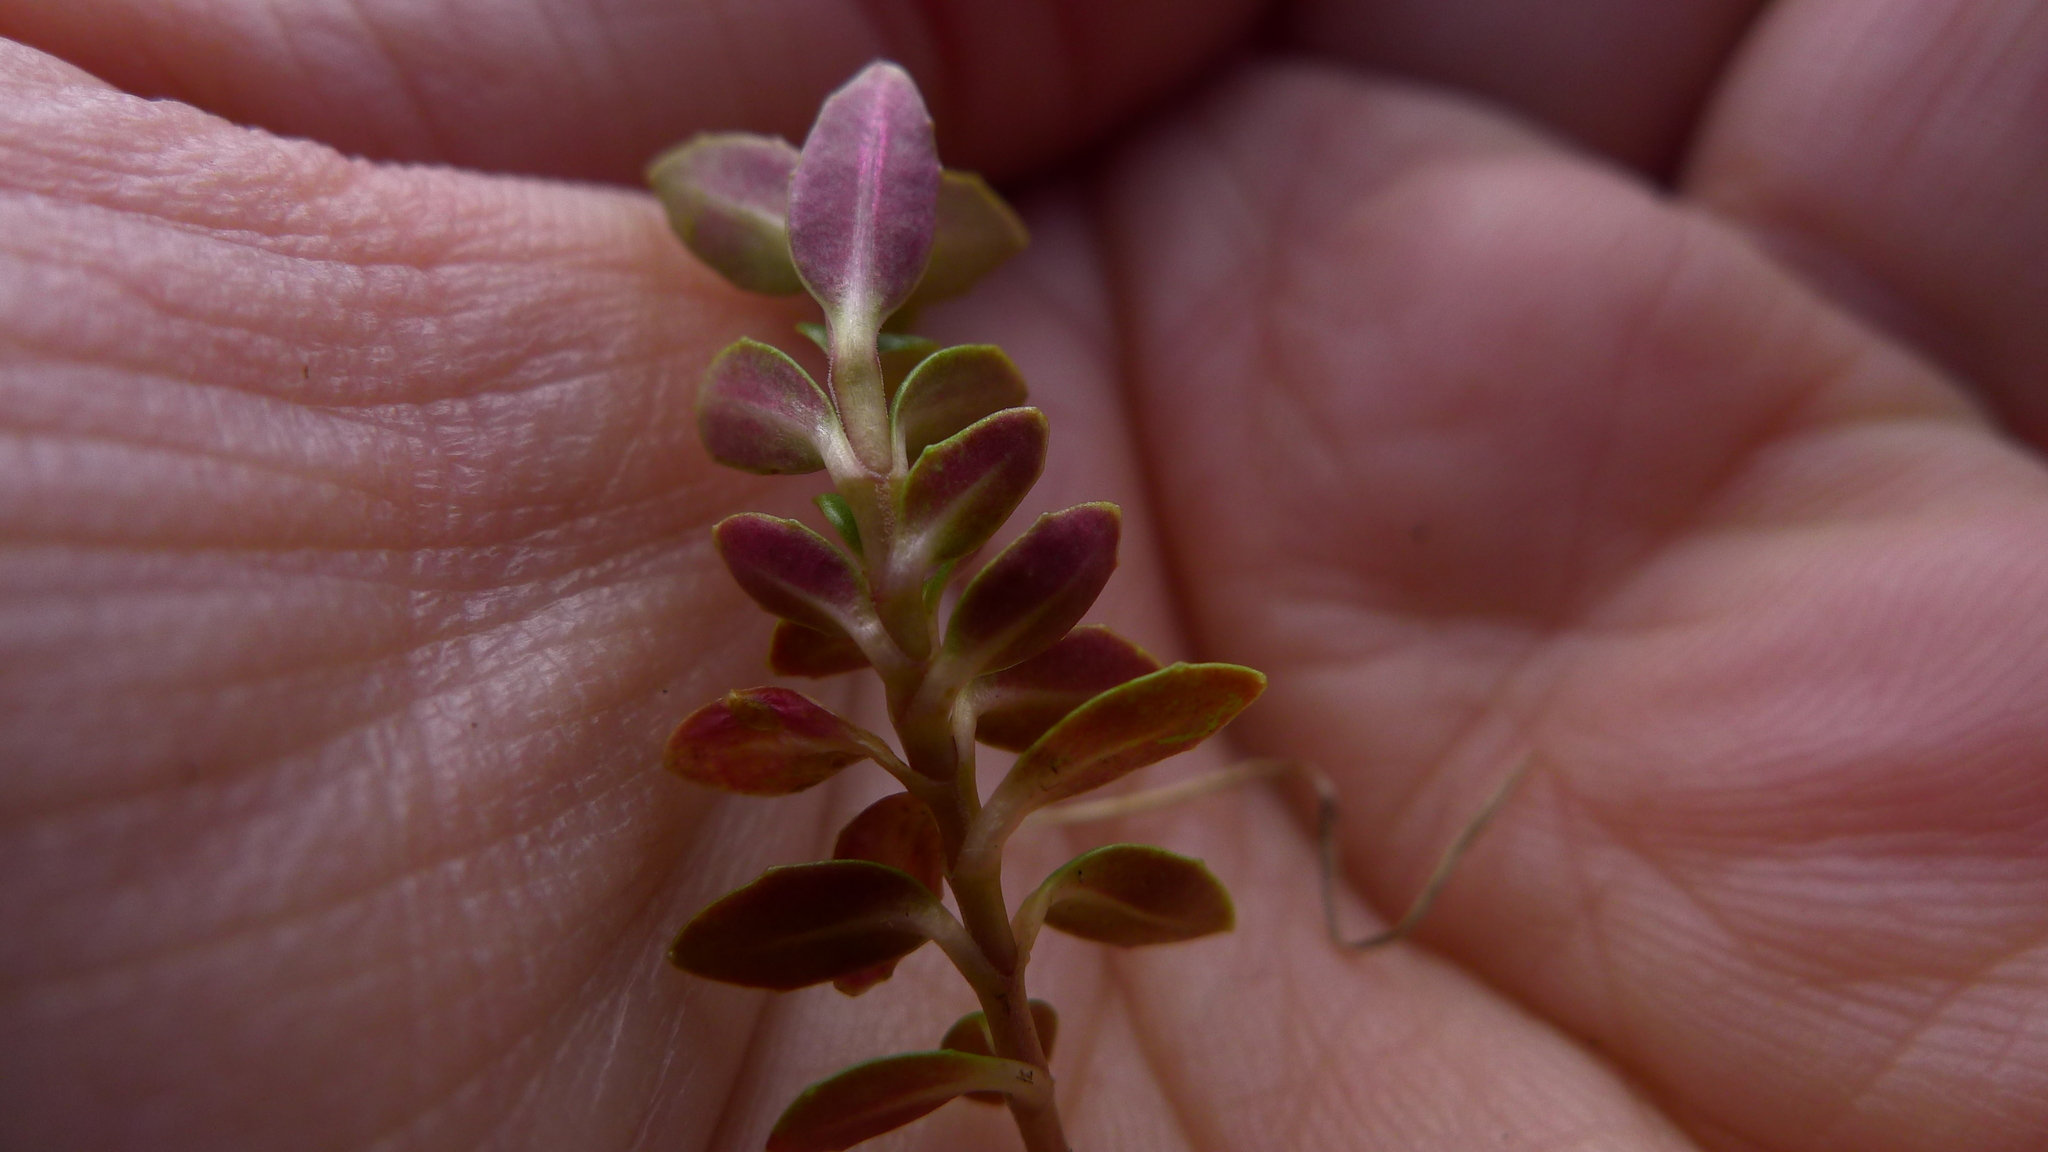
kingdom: Plantae
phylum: Tracheophyta
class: Magnoliopsida
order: Myrtales
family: Onagraceae
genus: Epilobium
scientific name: Epilobium alsinoides
